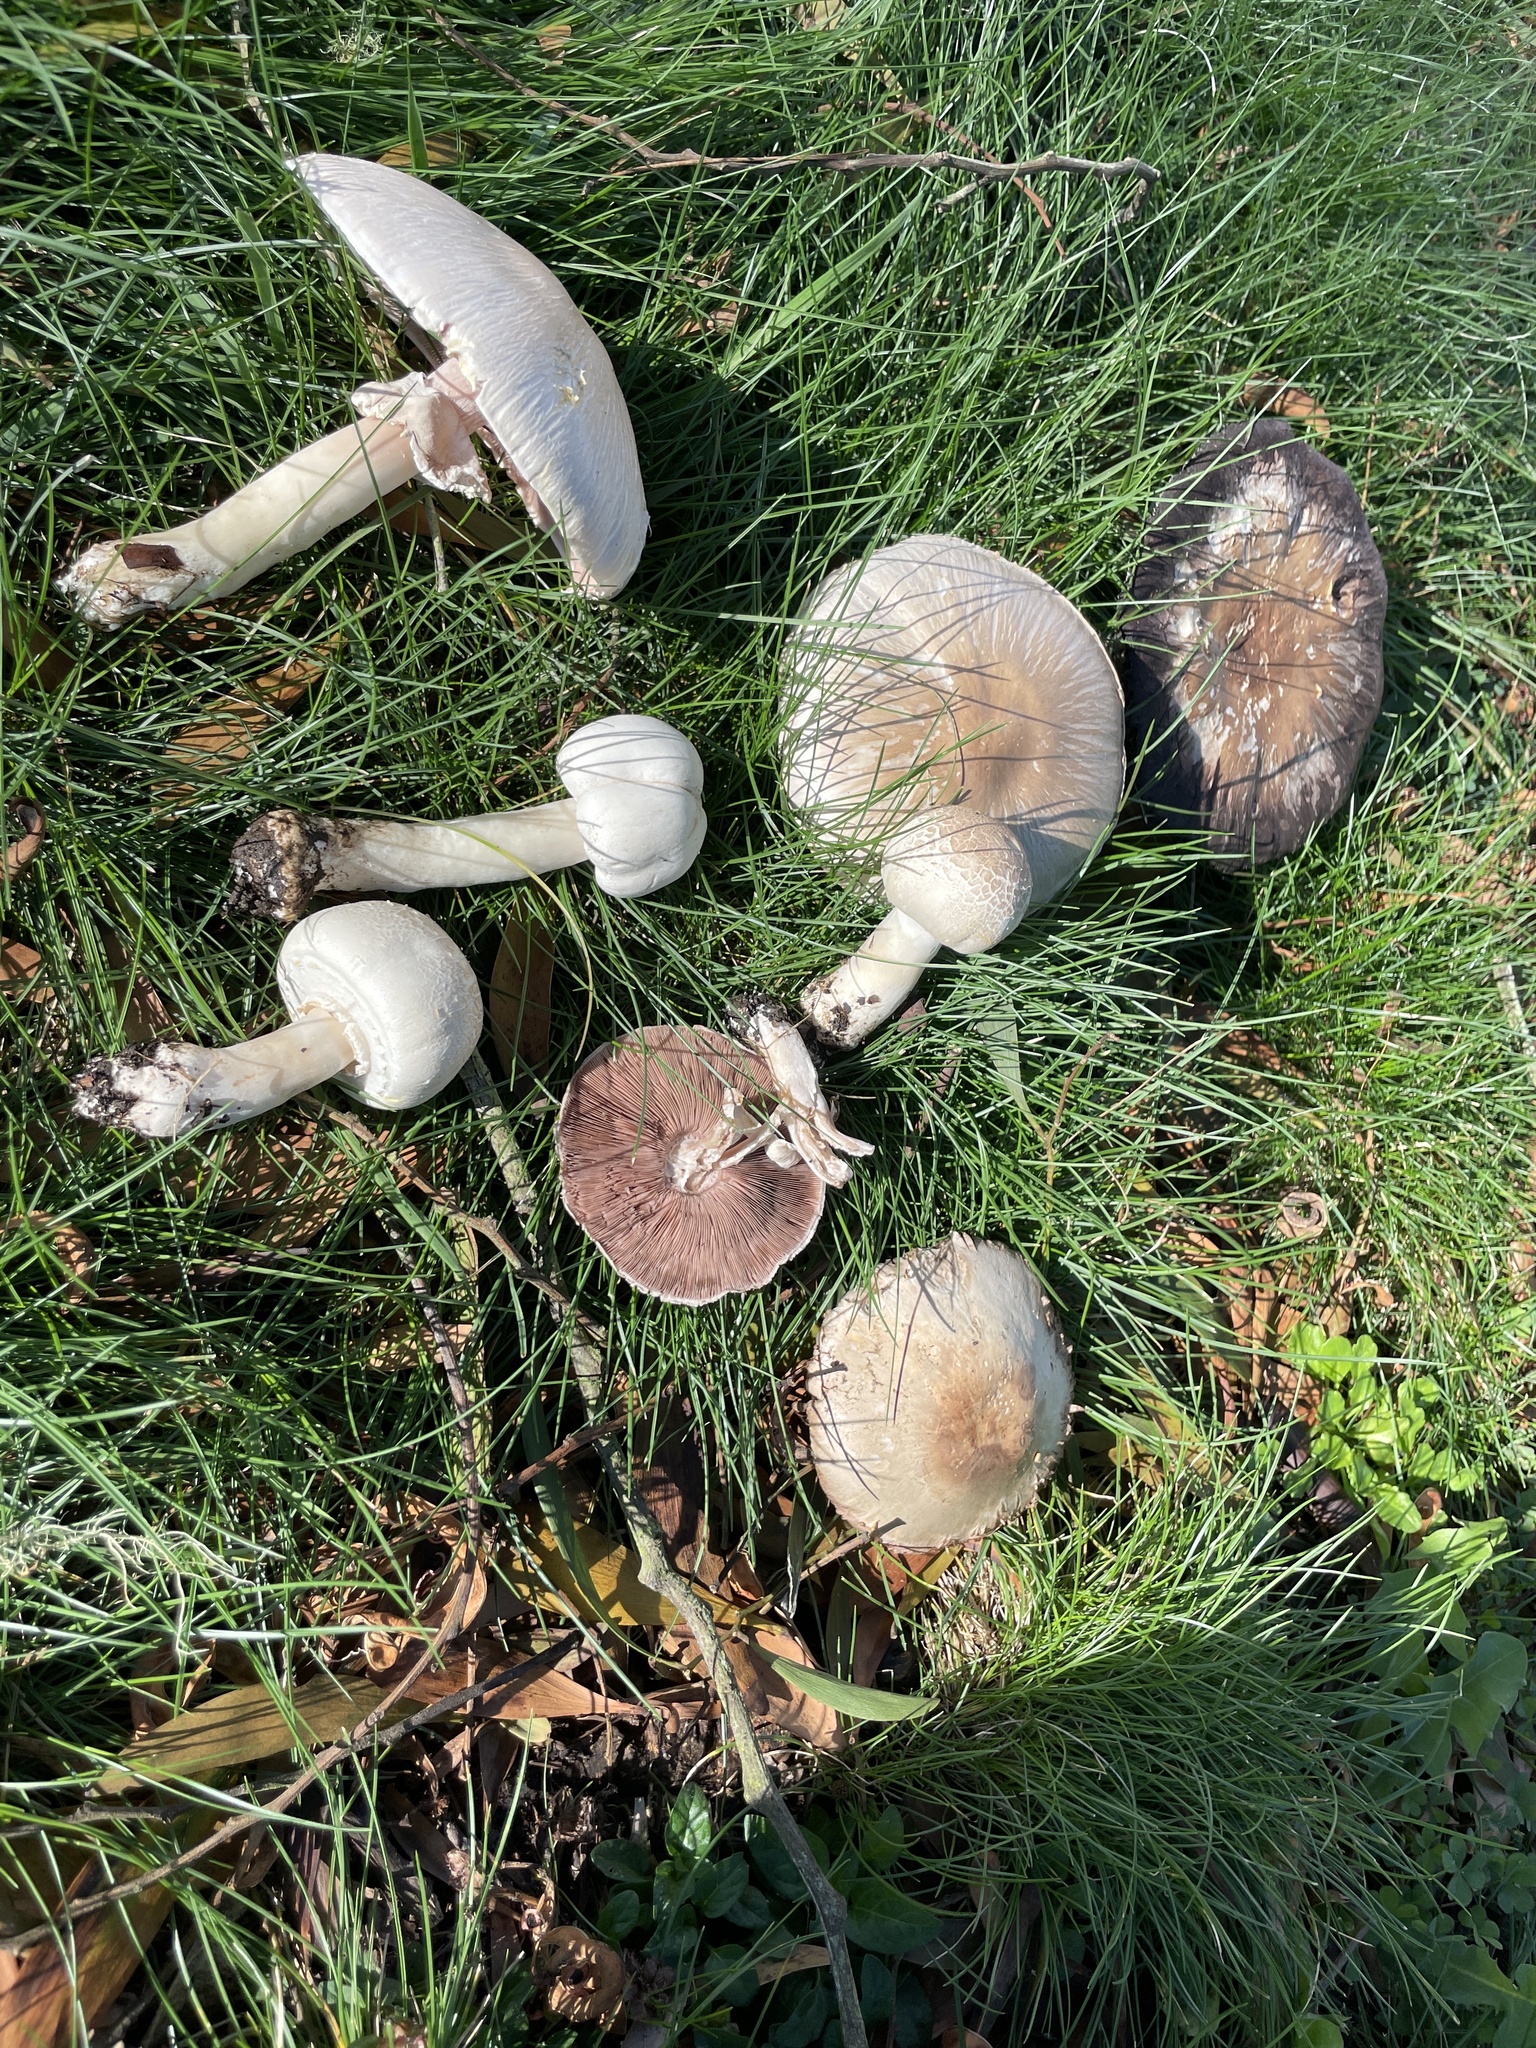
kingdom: Fungi
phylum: Basidiomycota
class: Agaricomycetes
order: Agaricales
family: Agaricaceae
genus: Agaricus
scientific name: Agaricus xanthodermus
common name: Yellow stainer
